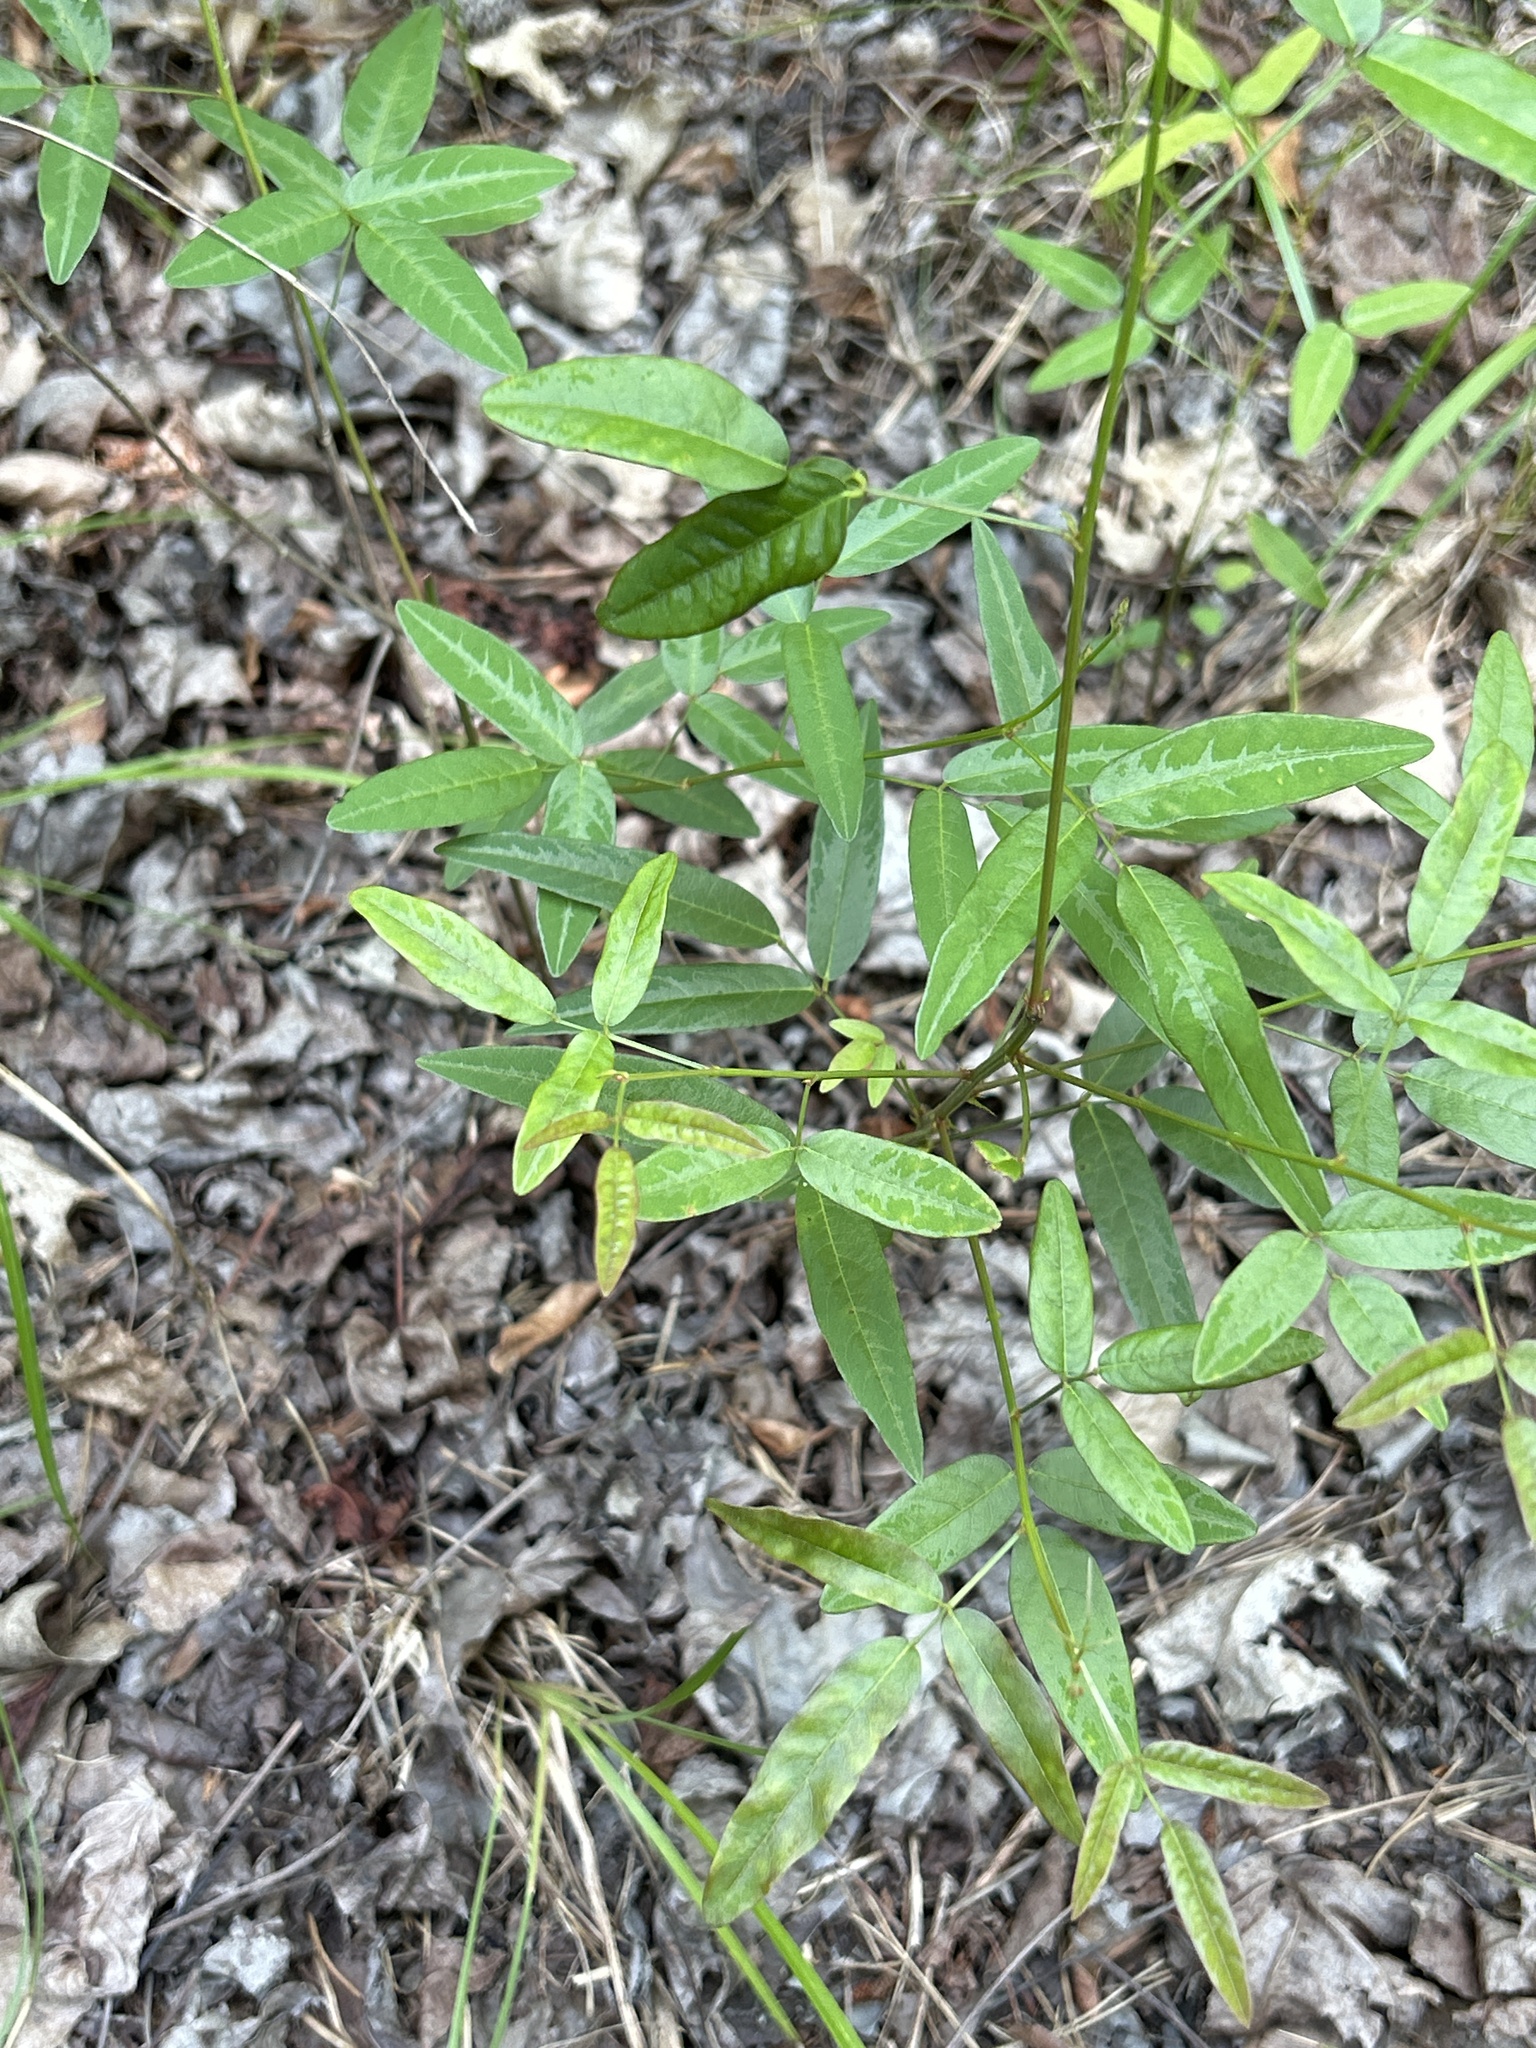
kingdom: Plantae
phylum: Tracheophyta
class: Magnoliopsida
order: Fabales
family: Fabaceae
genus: Desmodium
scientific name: Desmodium paniculatum
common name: Panicled tick-clover
